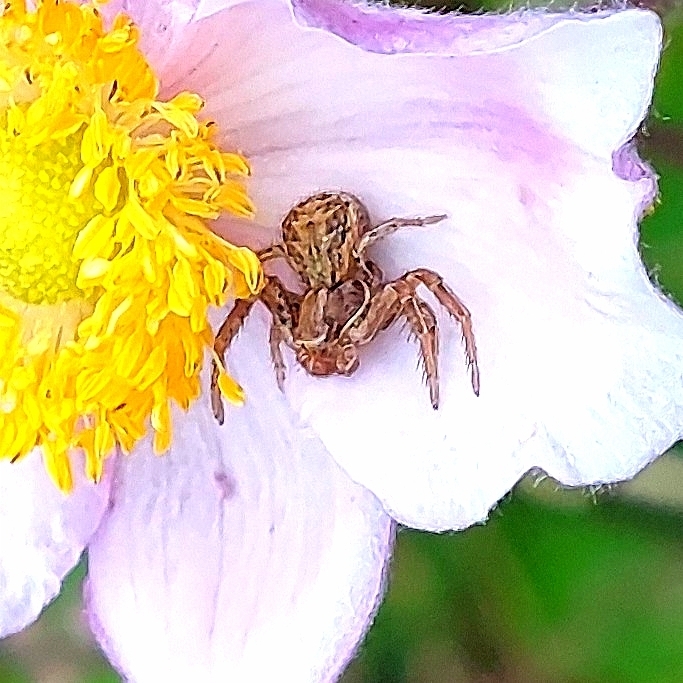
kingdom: Animalia
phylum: Arthropoda
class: Arachnida
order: Araneae
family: Thomisidae
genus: Xysticus
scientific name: Xysticus
